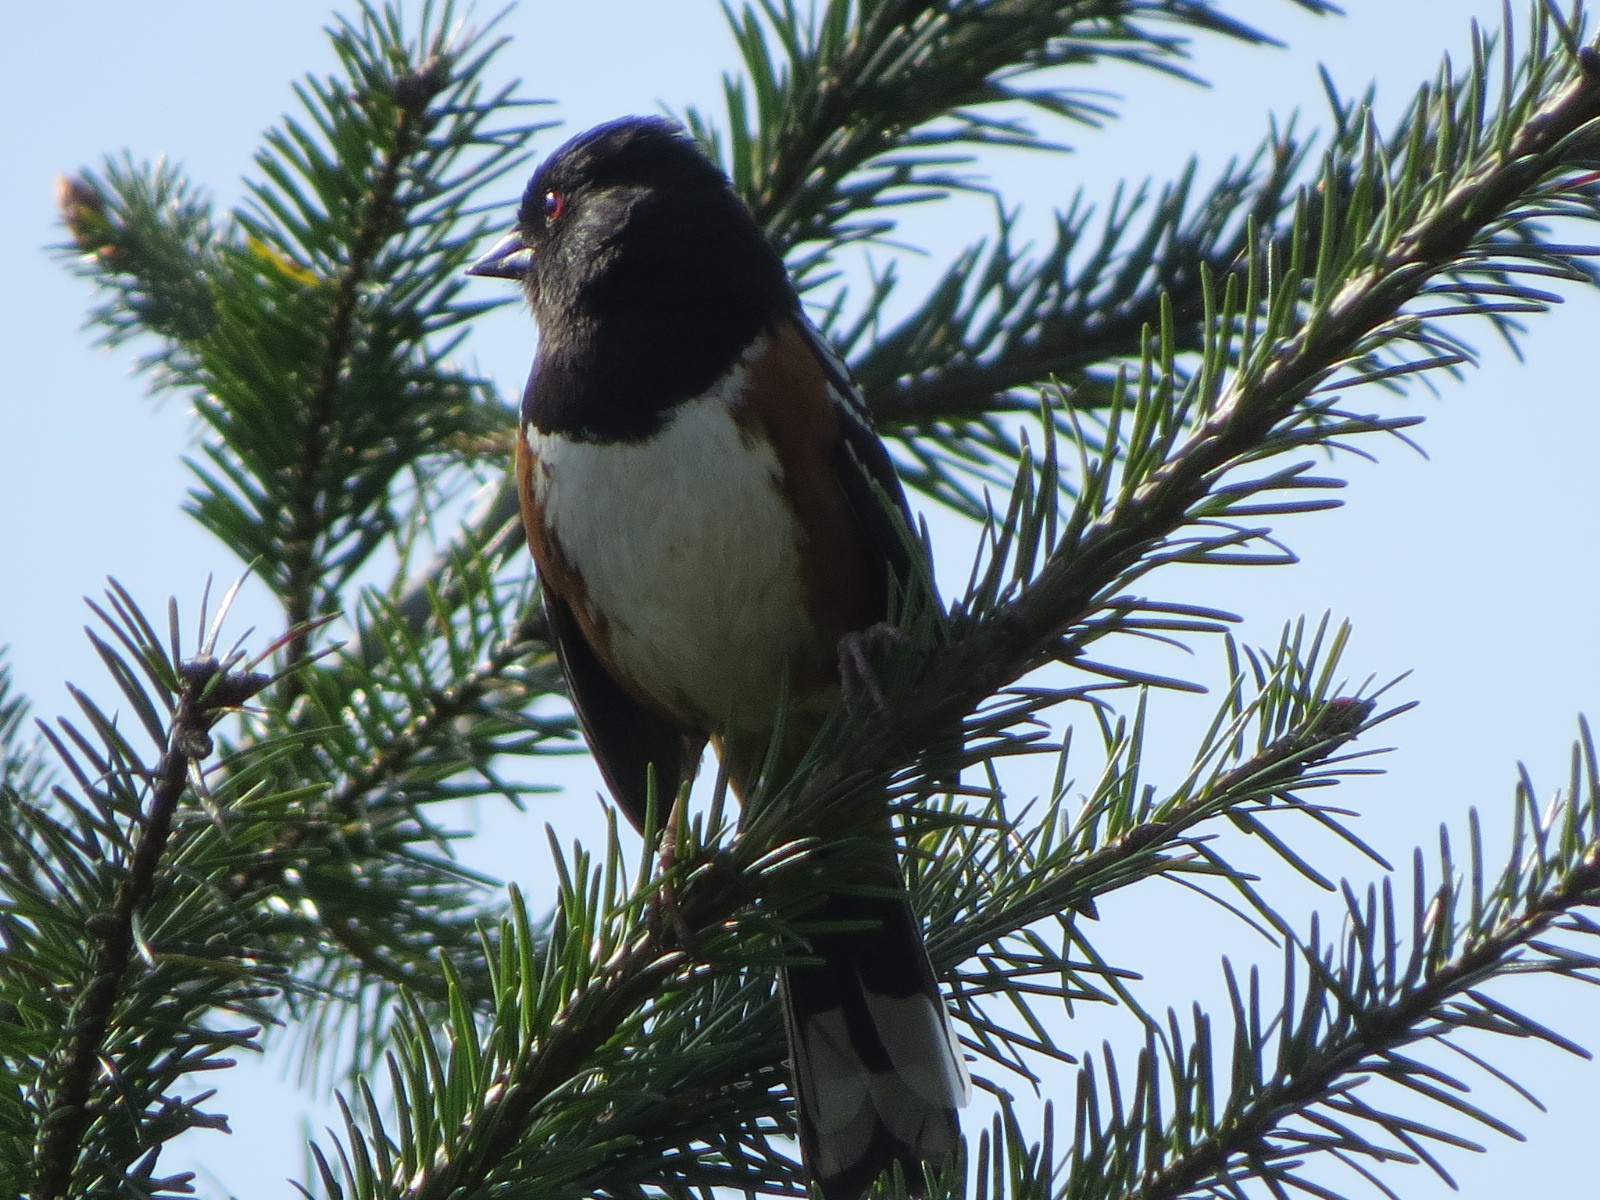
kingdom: Animalia
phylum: Chordata
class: Aves
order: Passeriformes
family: Passerellidae
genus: Pipilo
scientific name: Pipilo maculatus
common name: Spotted towhee
